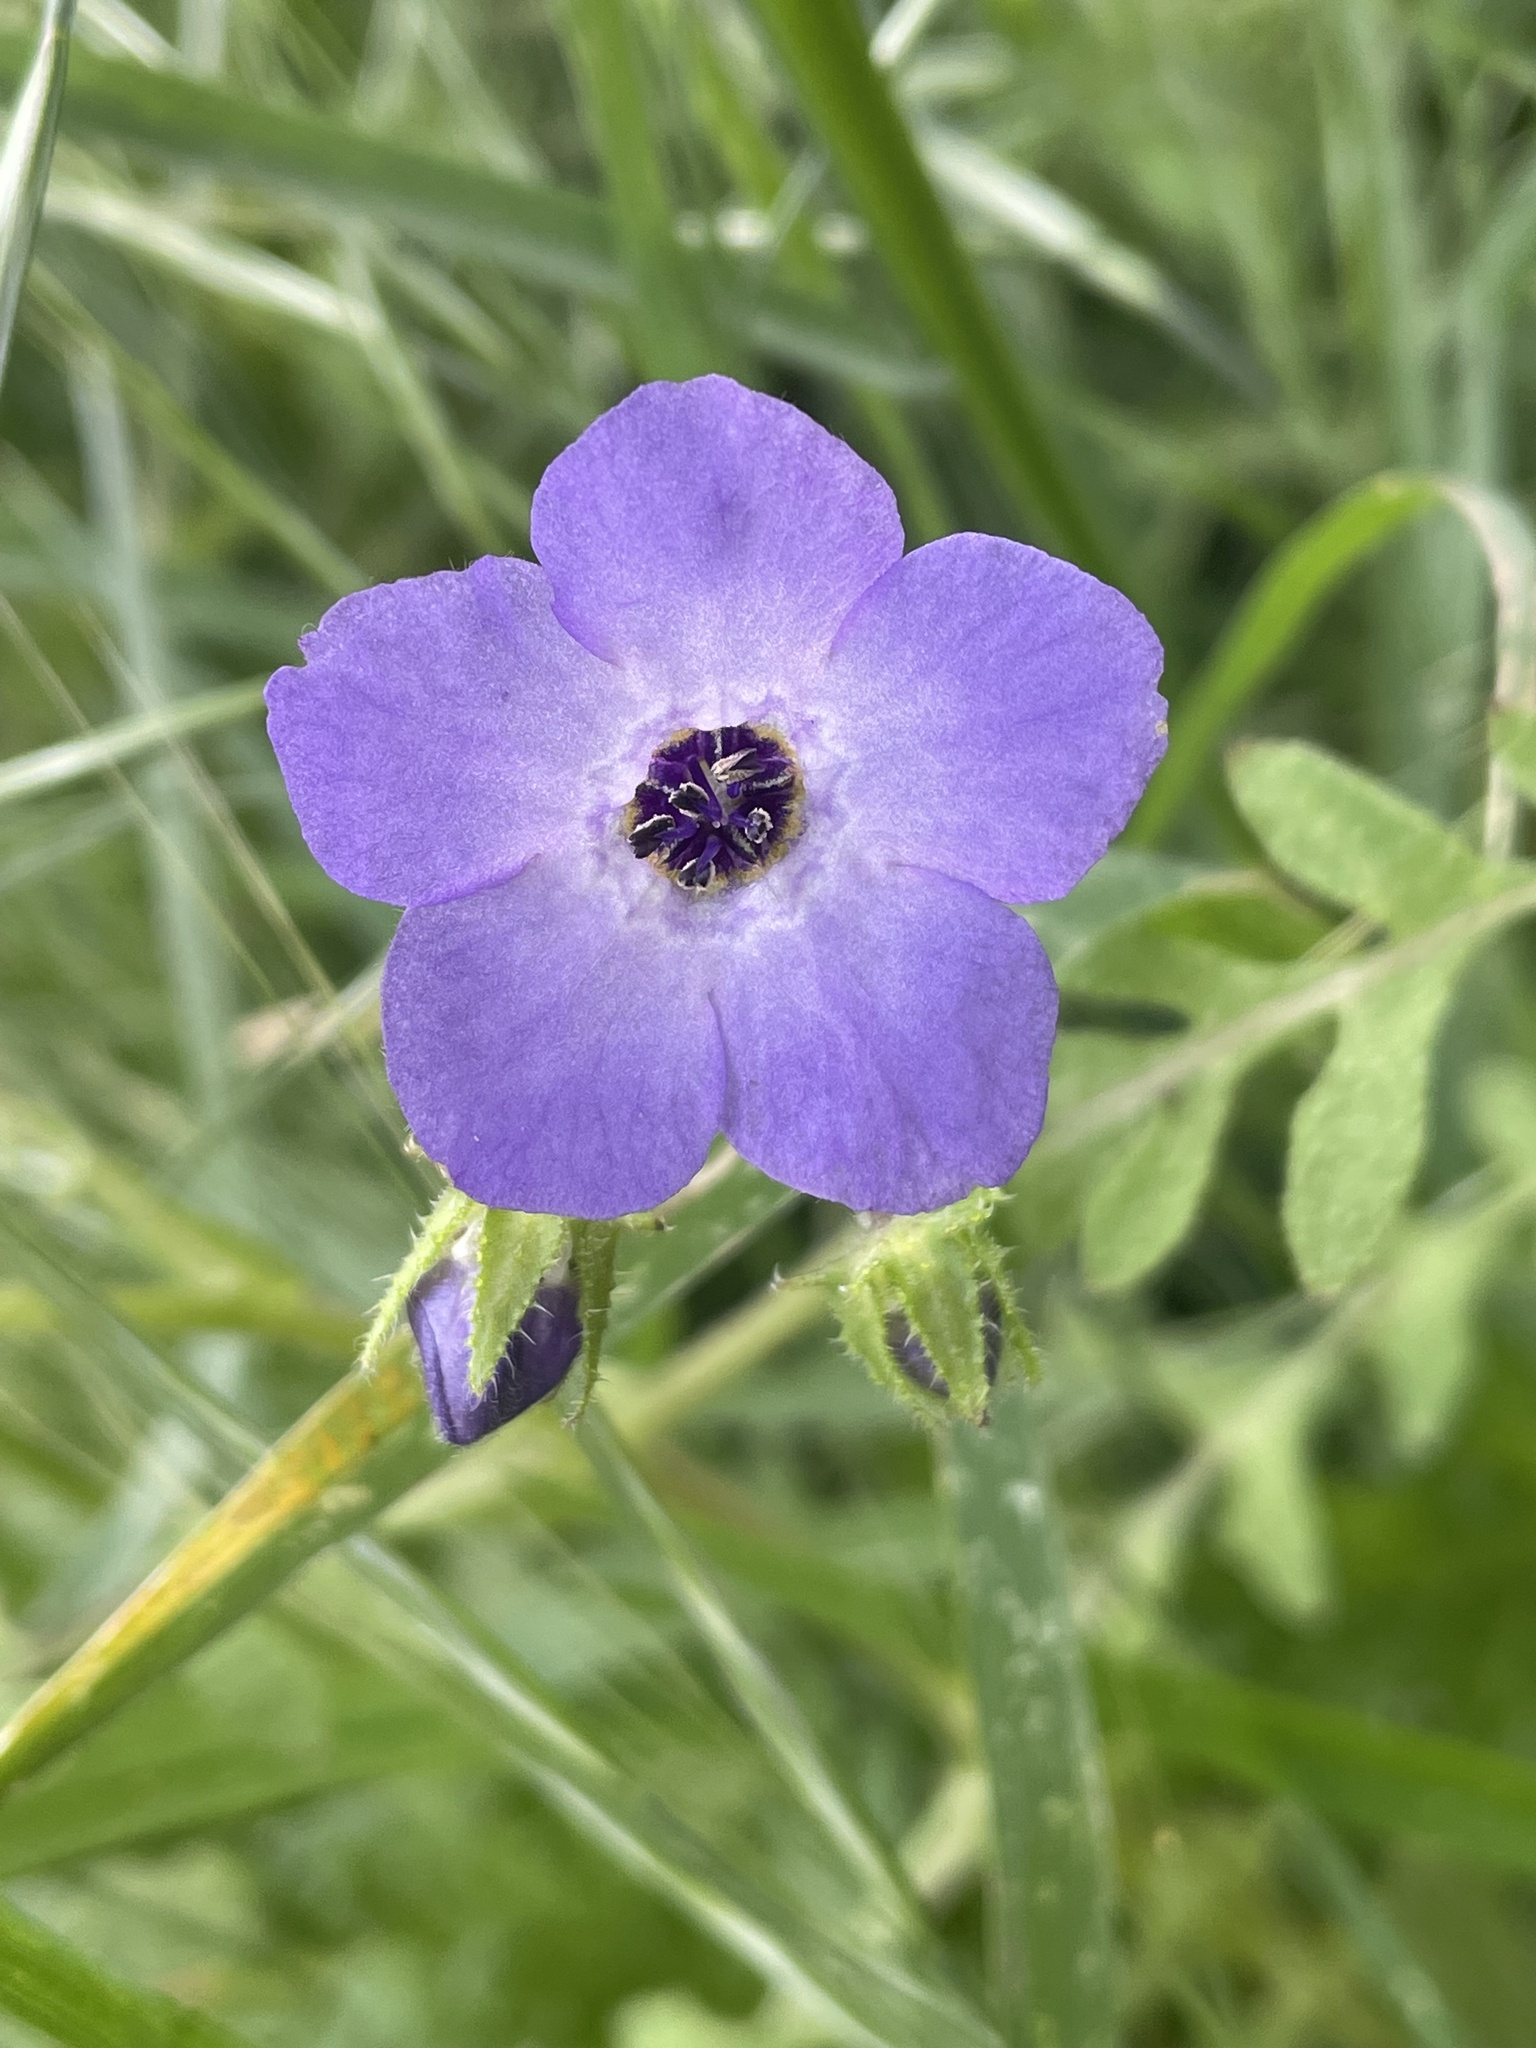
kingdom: Plantae
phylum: Tracheophyta
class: Magnoliopsida
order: Boraginales
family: Hydrophyllaceae
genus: Pholistoma
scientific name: Pholistoma auritum
